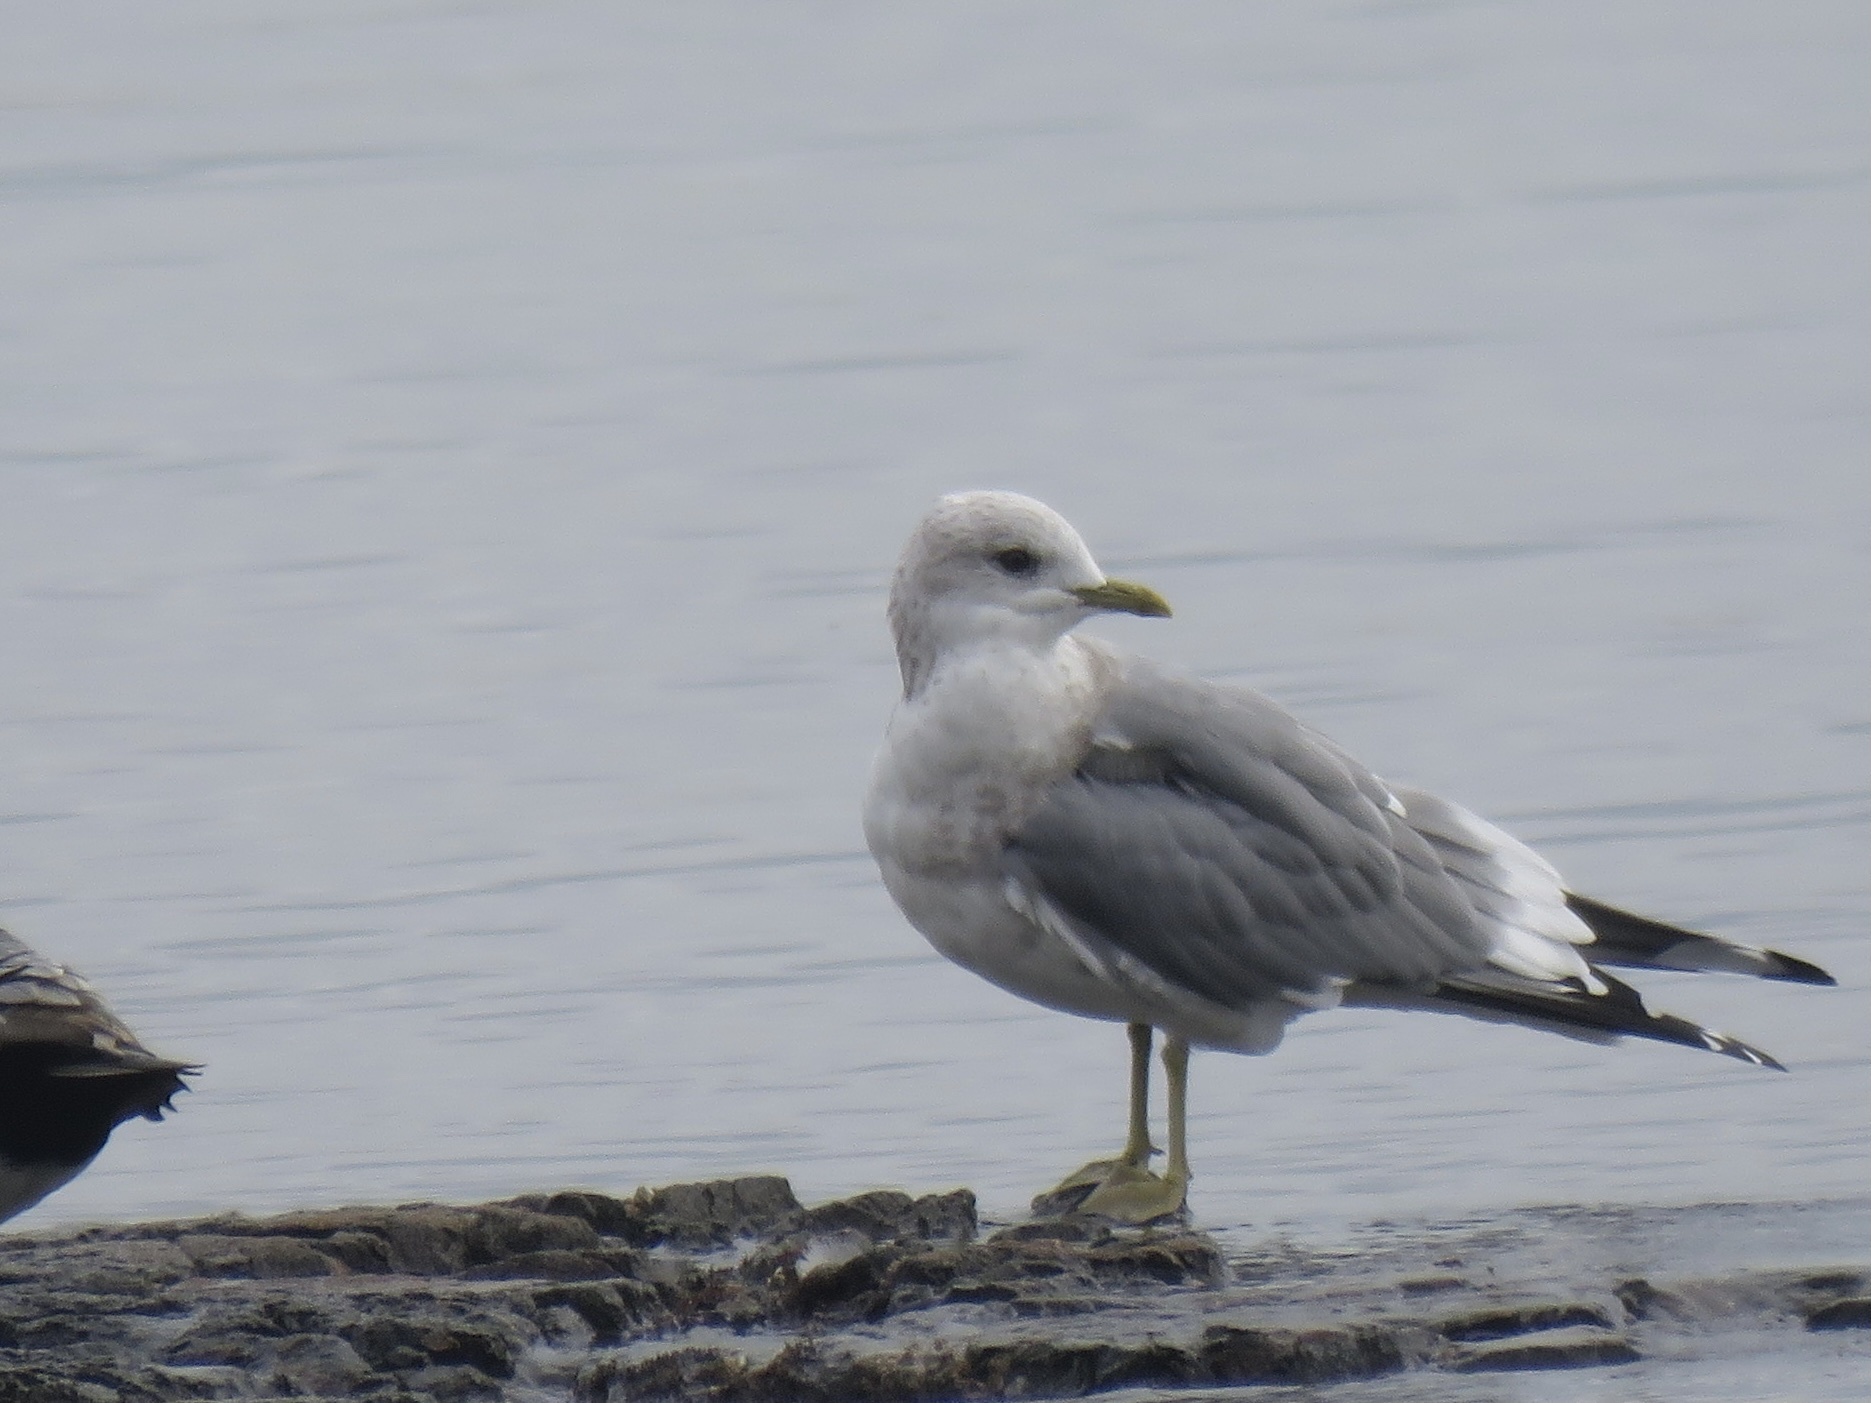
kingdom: Animalia
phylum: Chordata
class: Aves
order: Charadriiformes
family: Laridae
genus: Larus
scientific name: Larus brachyrhynchus
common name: Short-billed gull
